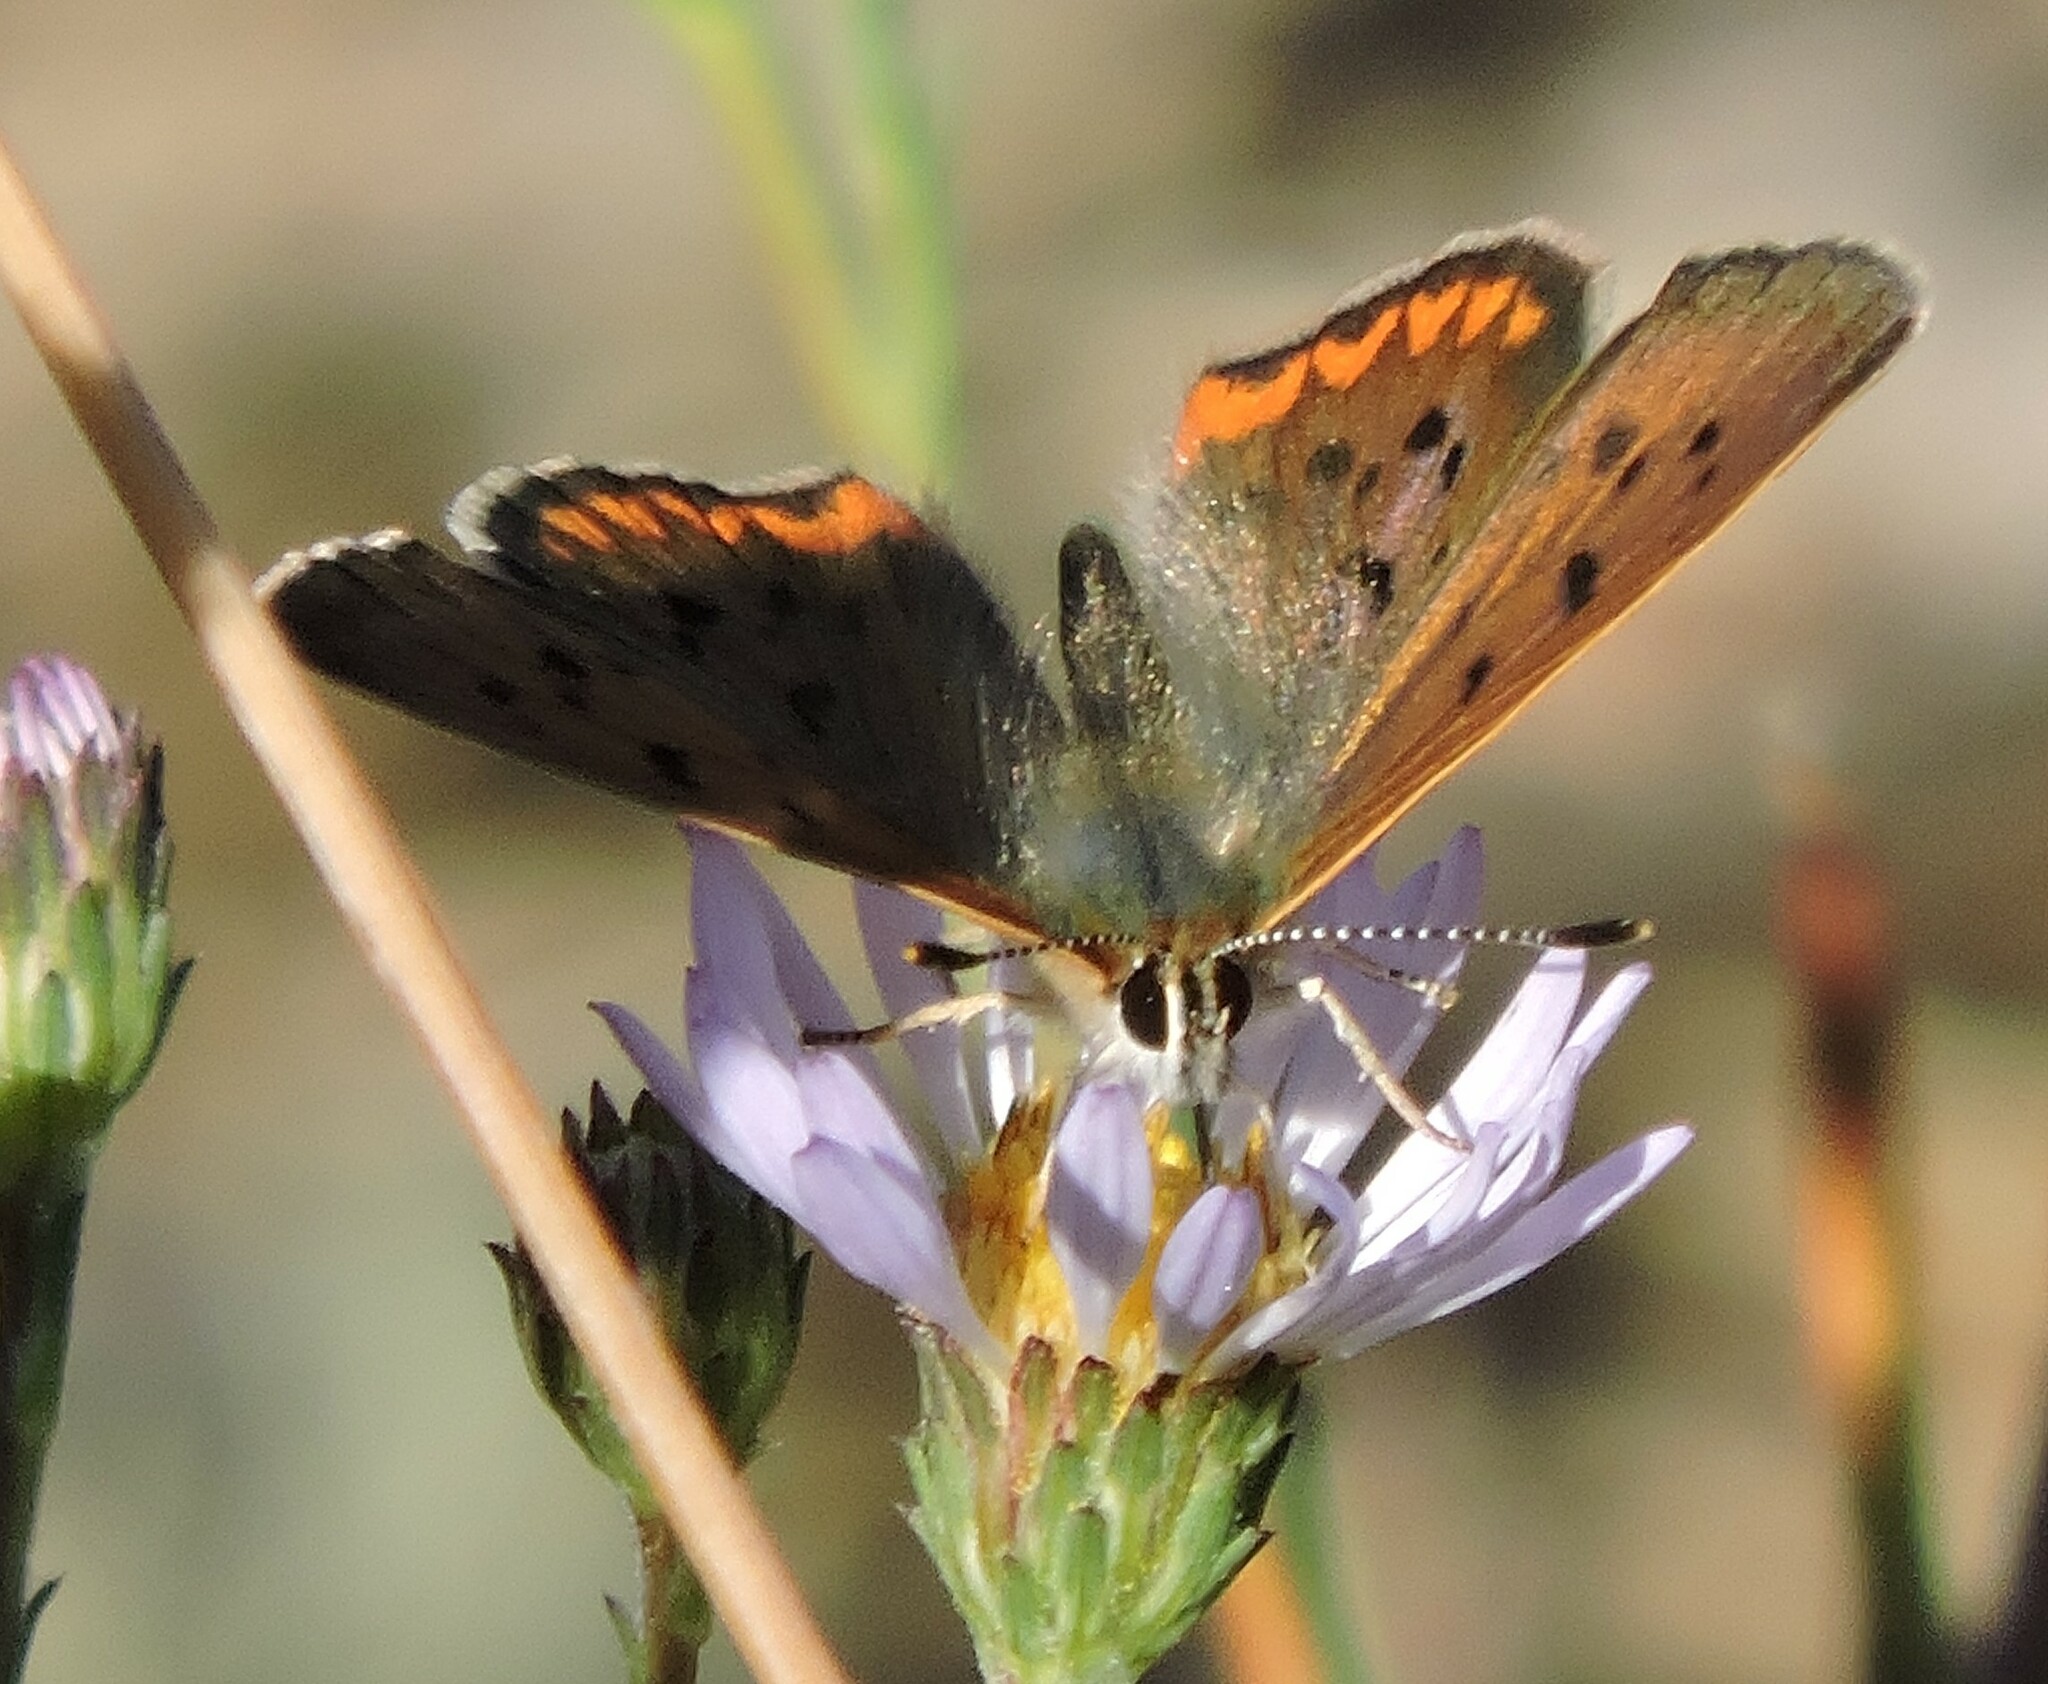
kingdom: Animalia
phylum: Arthropoda
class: Insecta
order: Lepidoptera
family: Lycaenidae
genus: Tharsalea
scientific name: Tharsalea helloides
